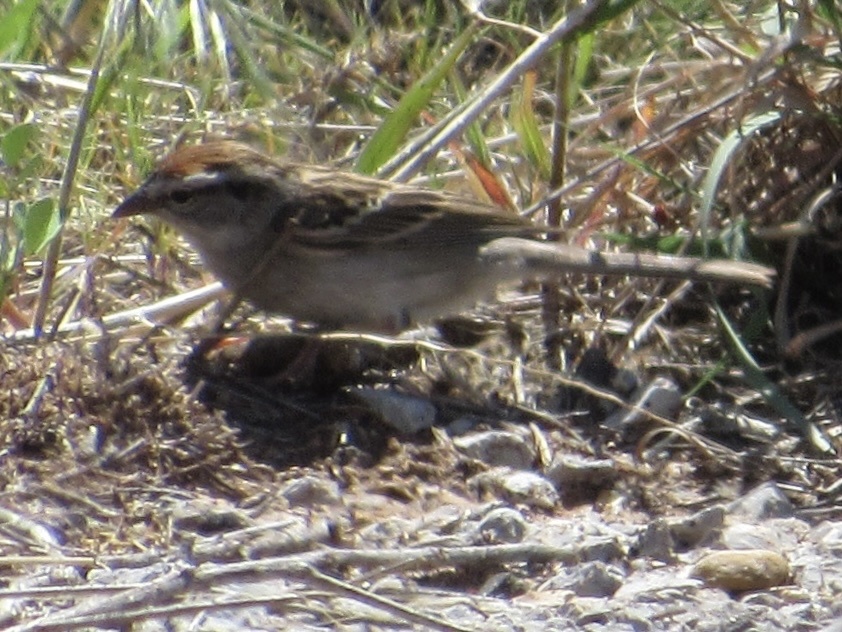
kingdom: Animalia
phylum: Chordata
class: Aves
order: Passeriformes
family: Passerellidae
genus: Spizella
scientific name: Spizella passerina
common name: Chipping sparrow
